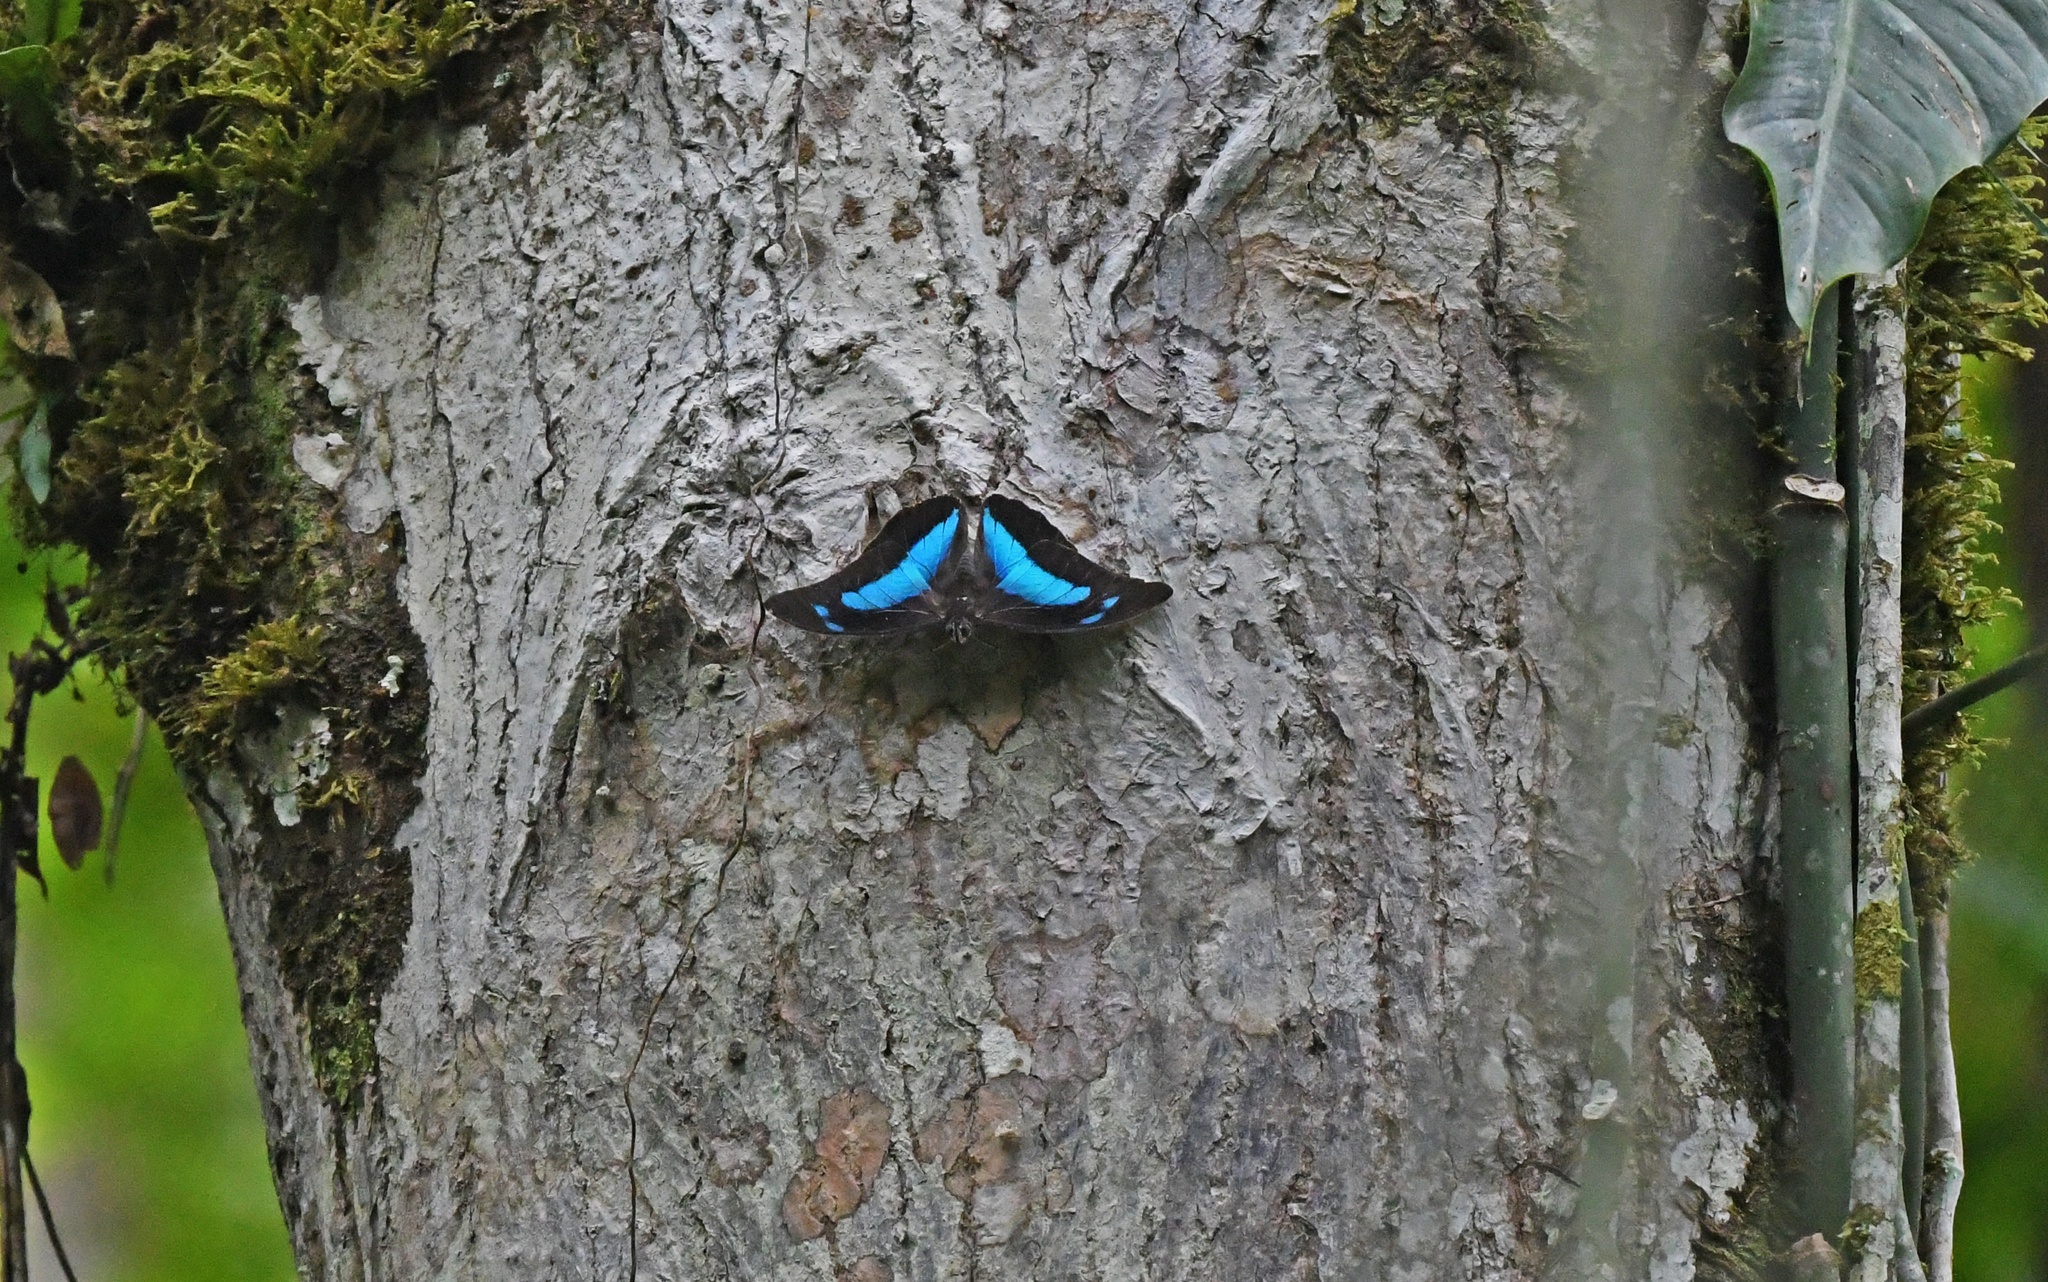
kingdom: Animalia
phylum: Arthropoda
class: Insecta
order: Lepidoptera
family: Nymphalidae
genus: Prepona
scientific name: Prepona demophoon
